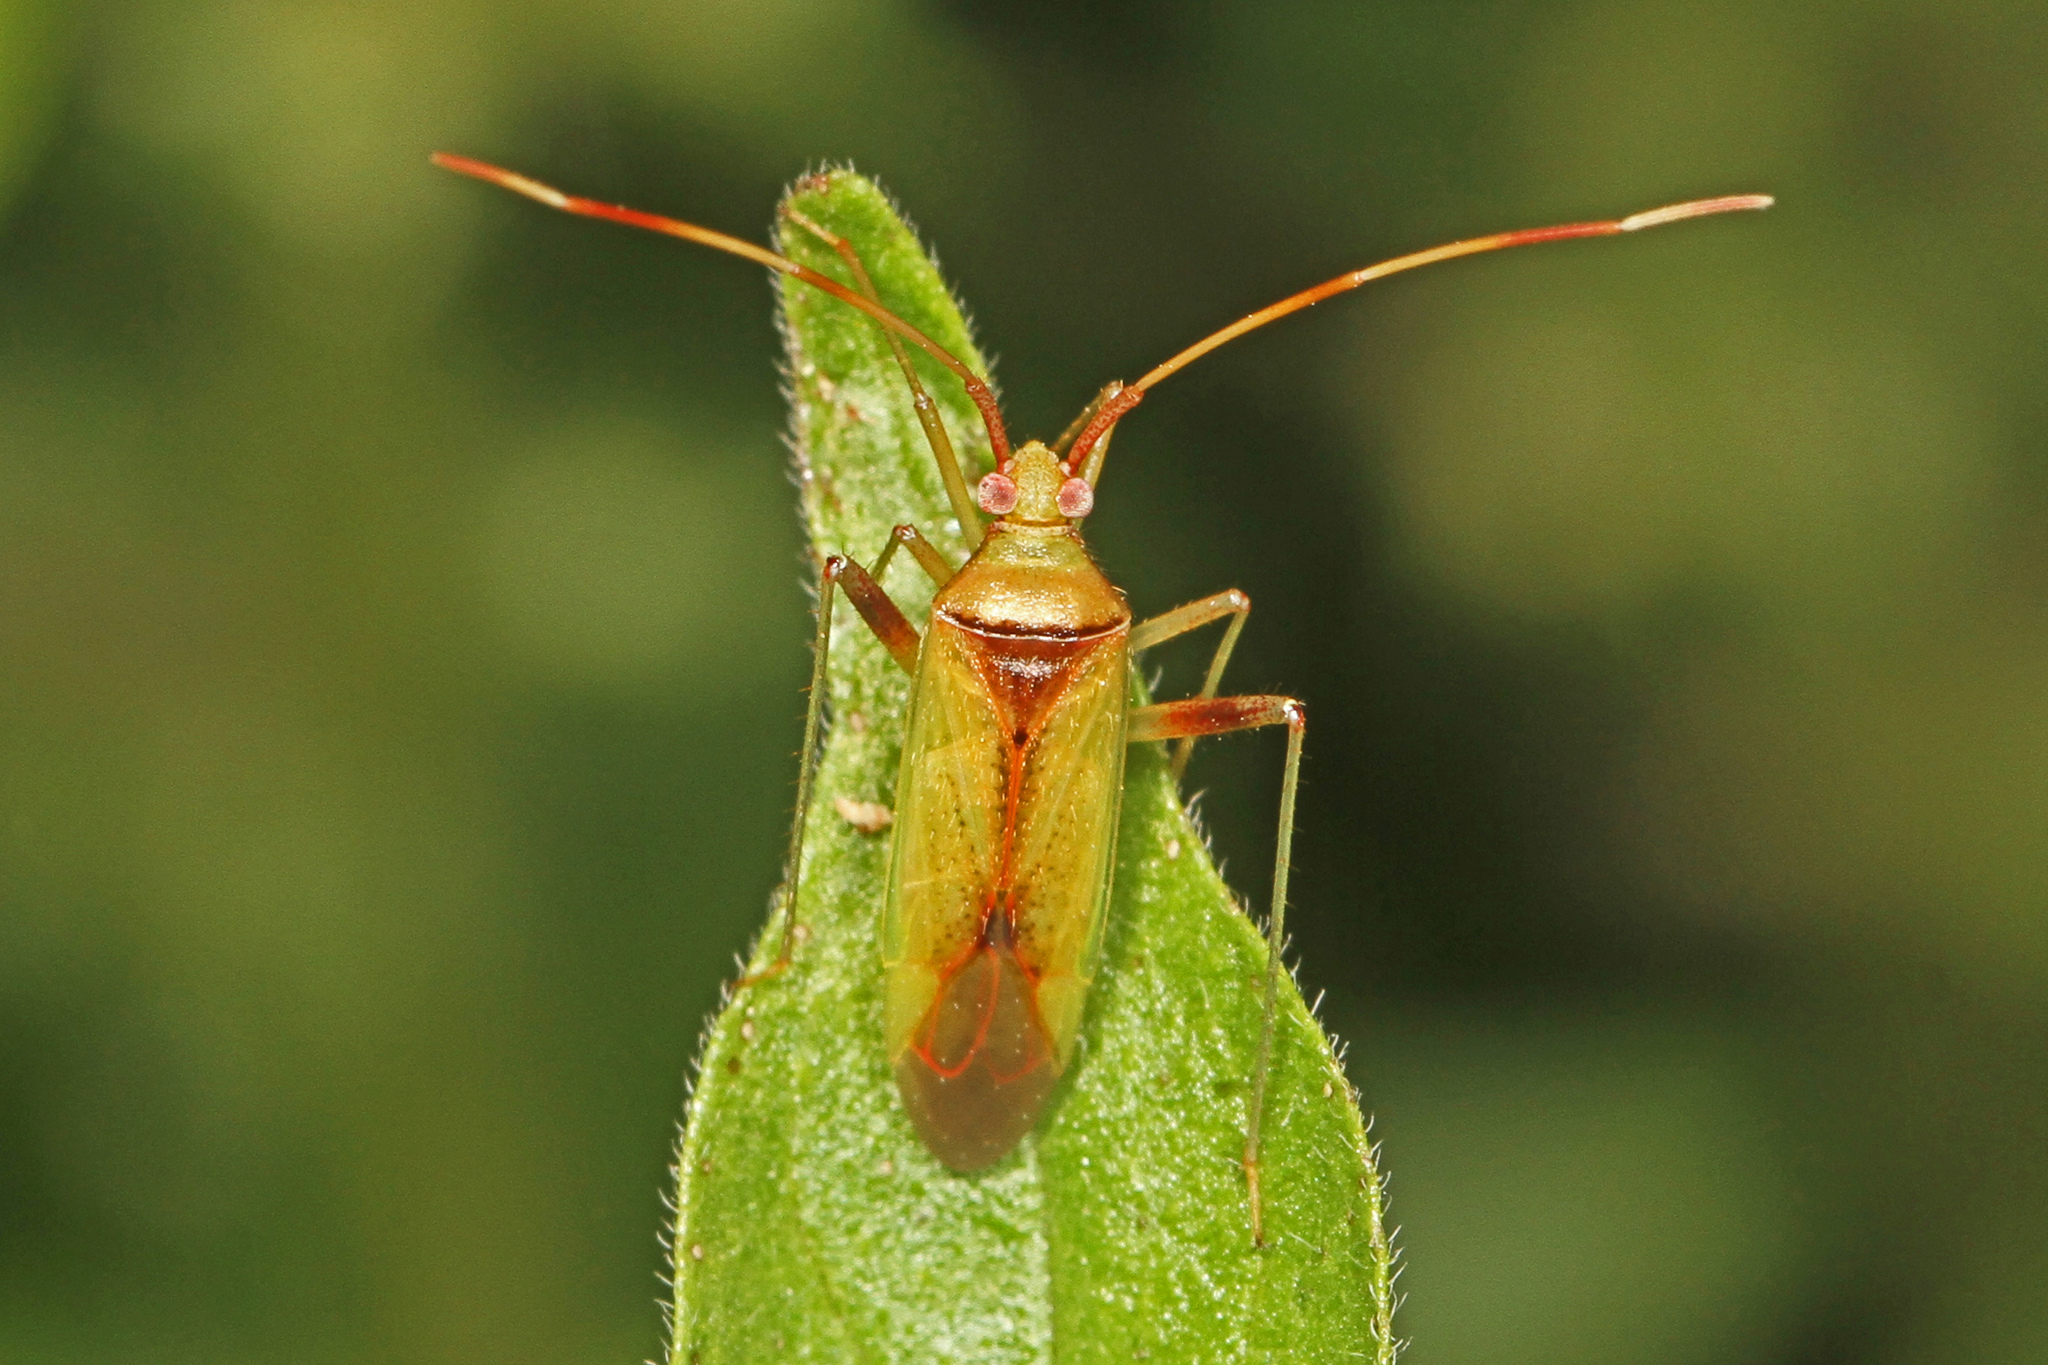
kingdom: Animalia
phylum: Arthropoda
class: Insecta
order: Hemiptera
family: Miridae
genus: Creontiades
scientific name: Creontiades rubrinervis
